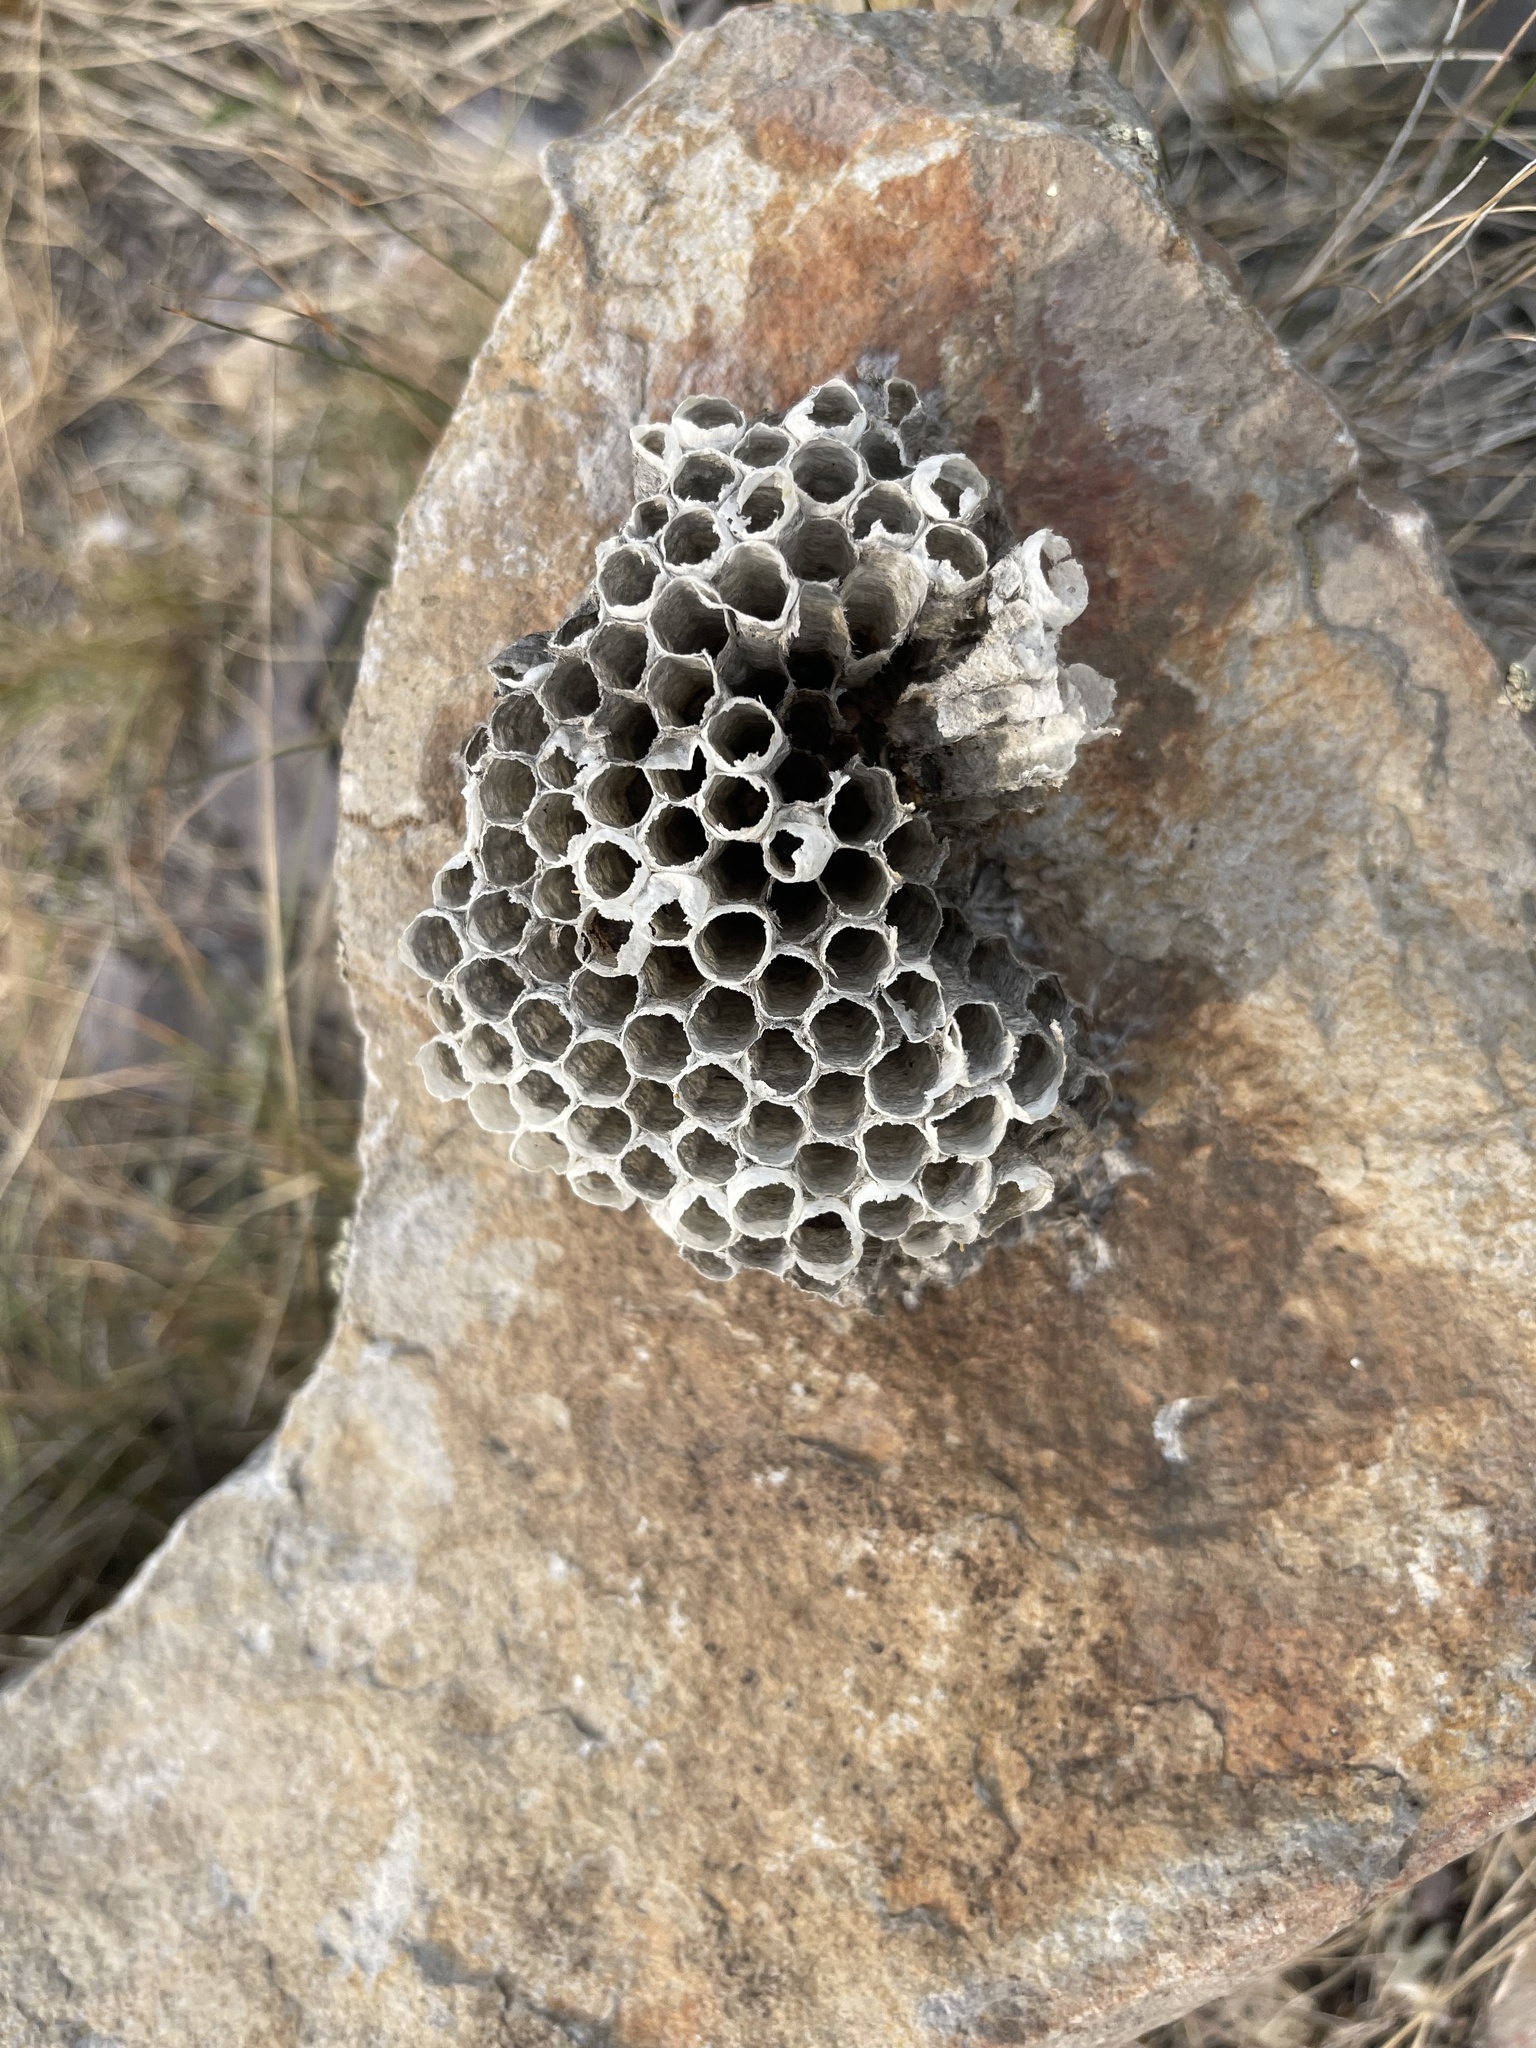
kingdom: Animalia
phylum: Arthropoda
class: Insecta
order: Hymenoptera
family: Vespidae
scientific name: Vespidae
